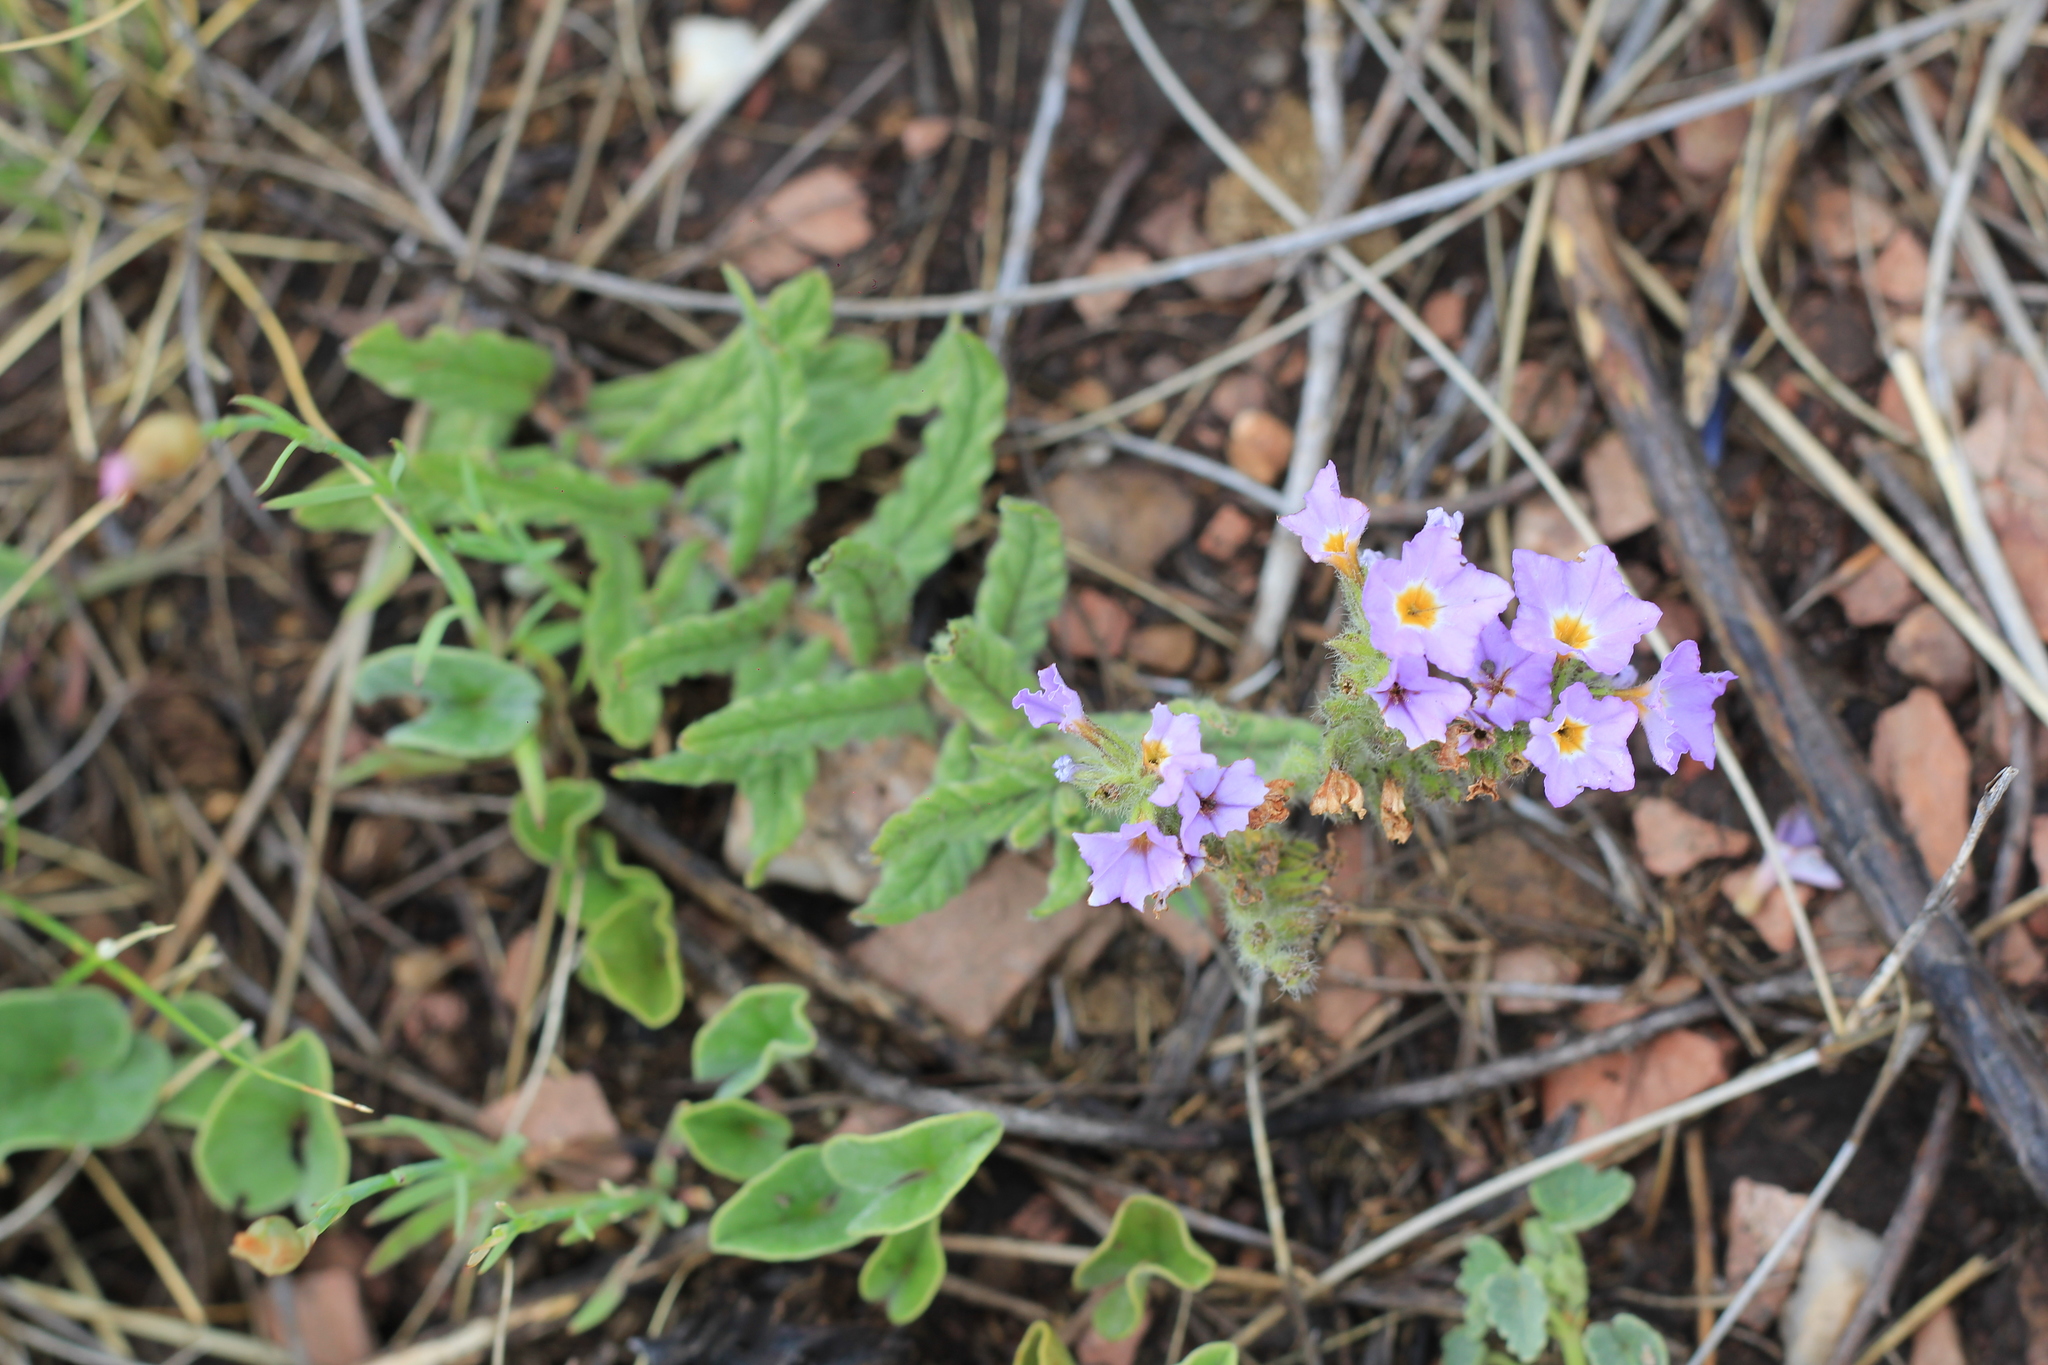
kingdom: Plantae
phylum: Tracheophyta
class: Magnoliopsida
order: Boraginales
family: Heliotropiaceae
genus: Heliotropium
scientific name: Heliotropium amplexicaule
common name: Clasping heliotrope
